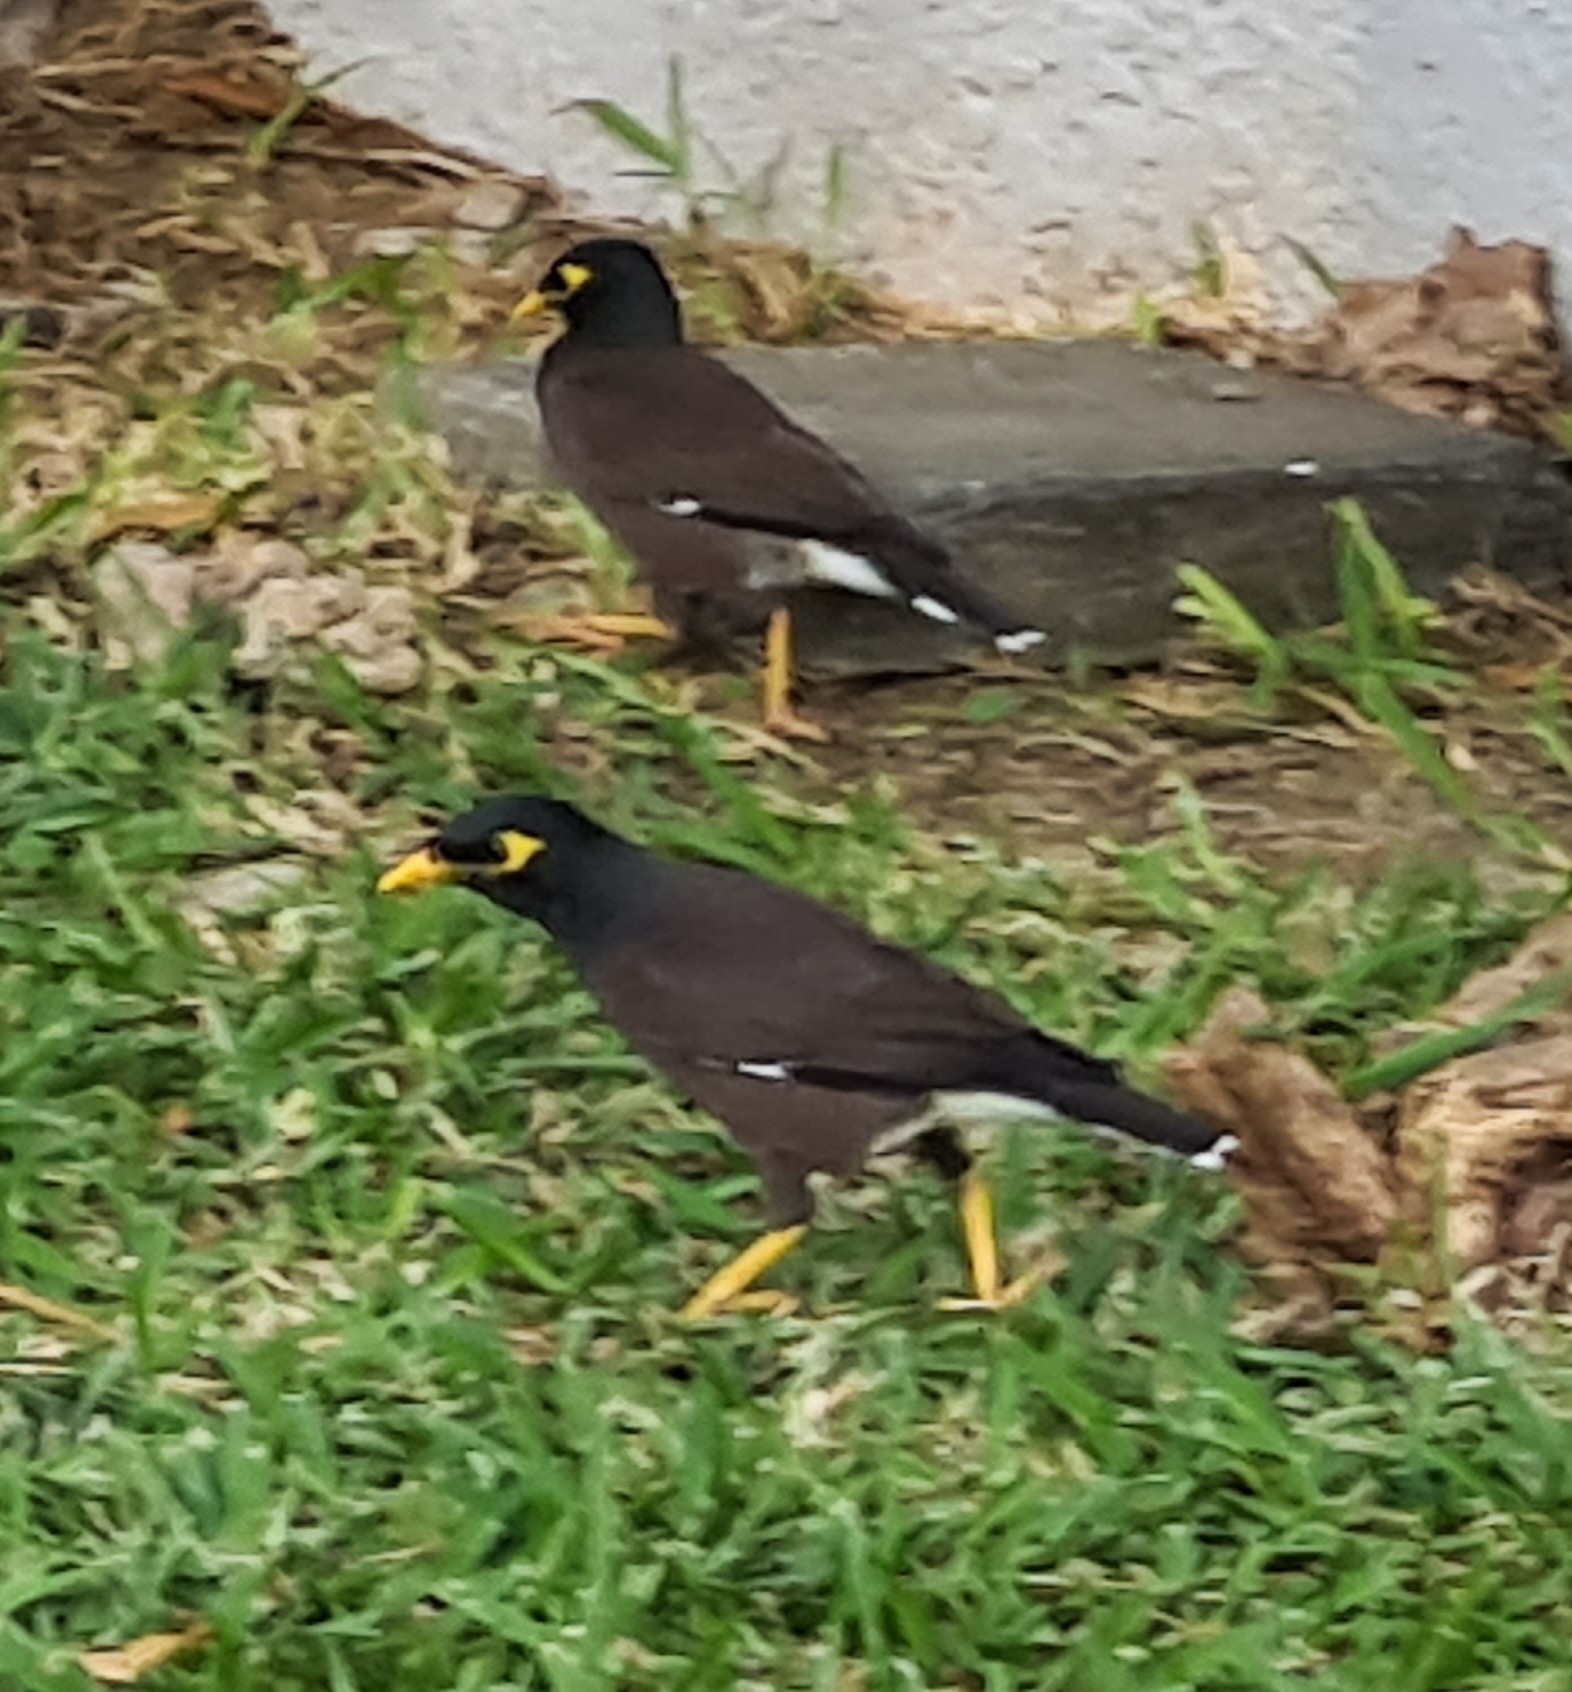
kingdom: Animalia
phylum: Chordata
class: Aves
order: Passeriformes
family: Sturnidae
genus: Acridotheres
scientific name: Acridotheres tristis
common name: Common myna
